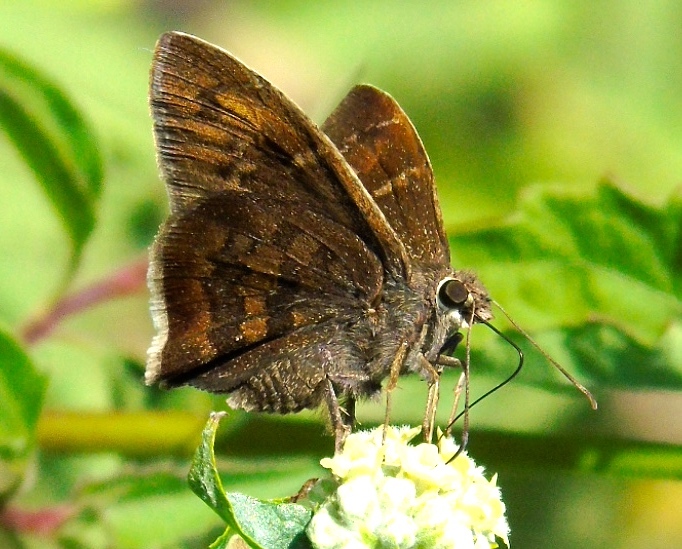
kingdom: Animalia
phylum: Arthropoda
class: Insecta
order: Lepidoptera
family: Hesperiidae
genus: Achalarus
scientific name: Achalarus Murgaria jalapus
